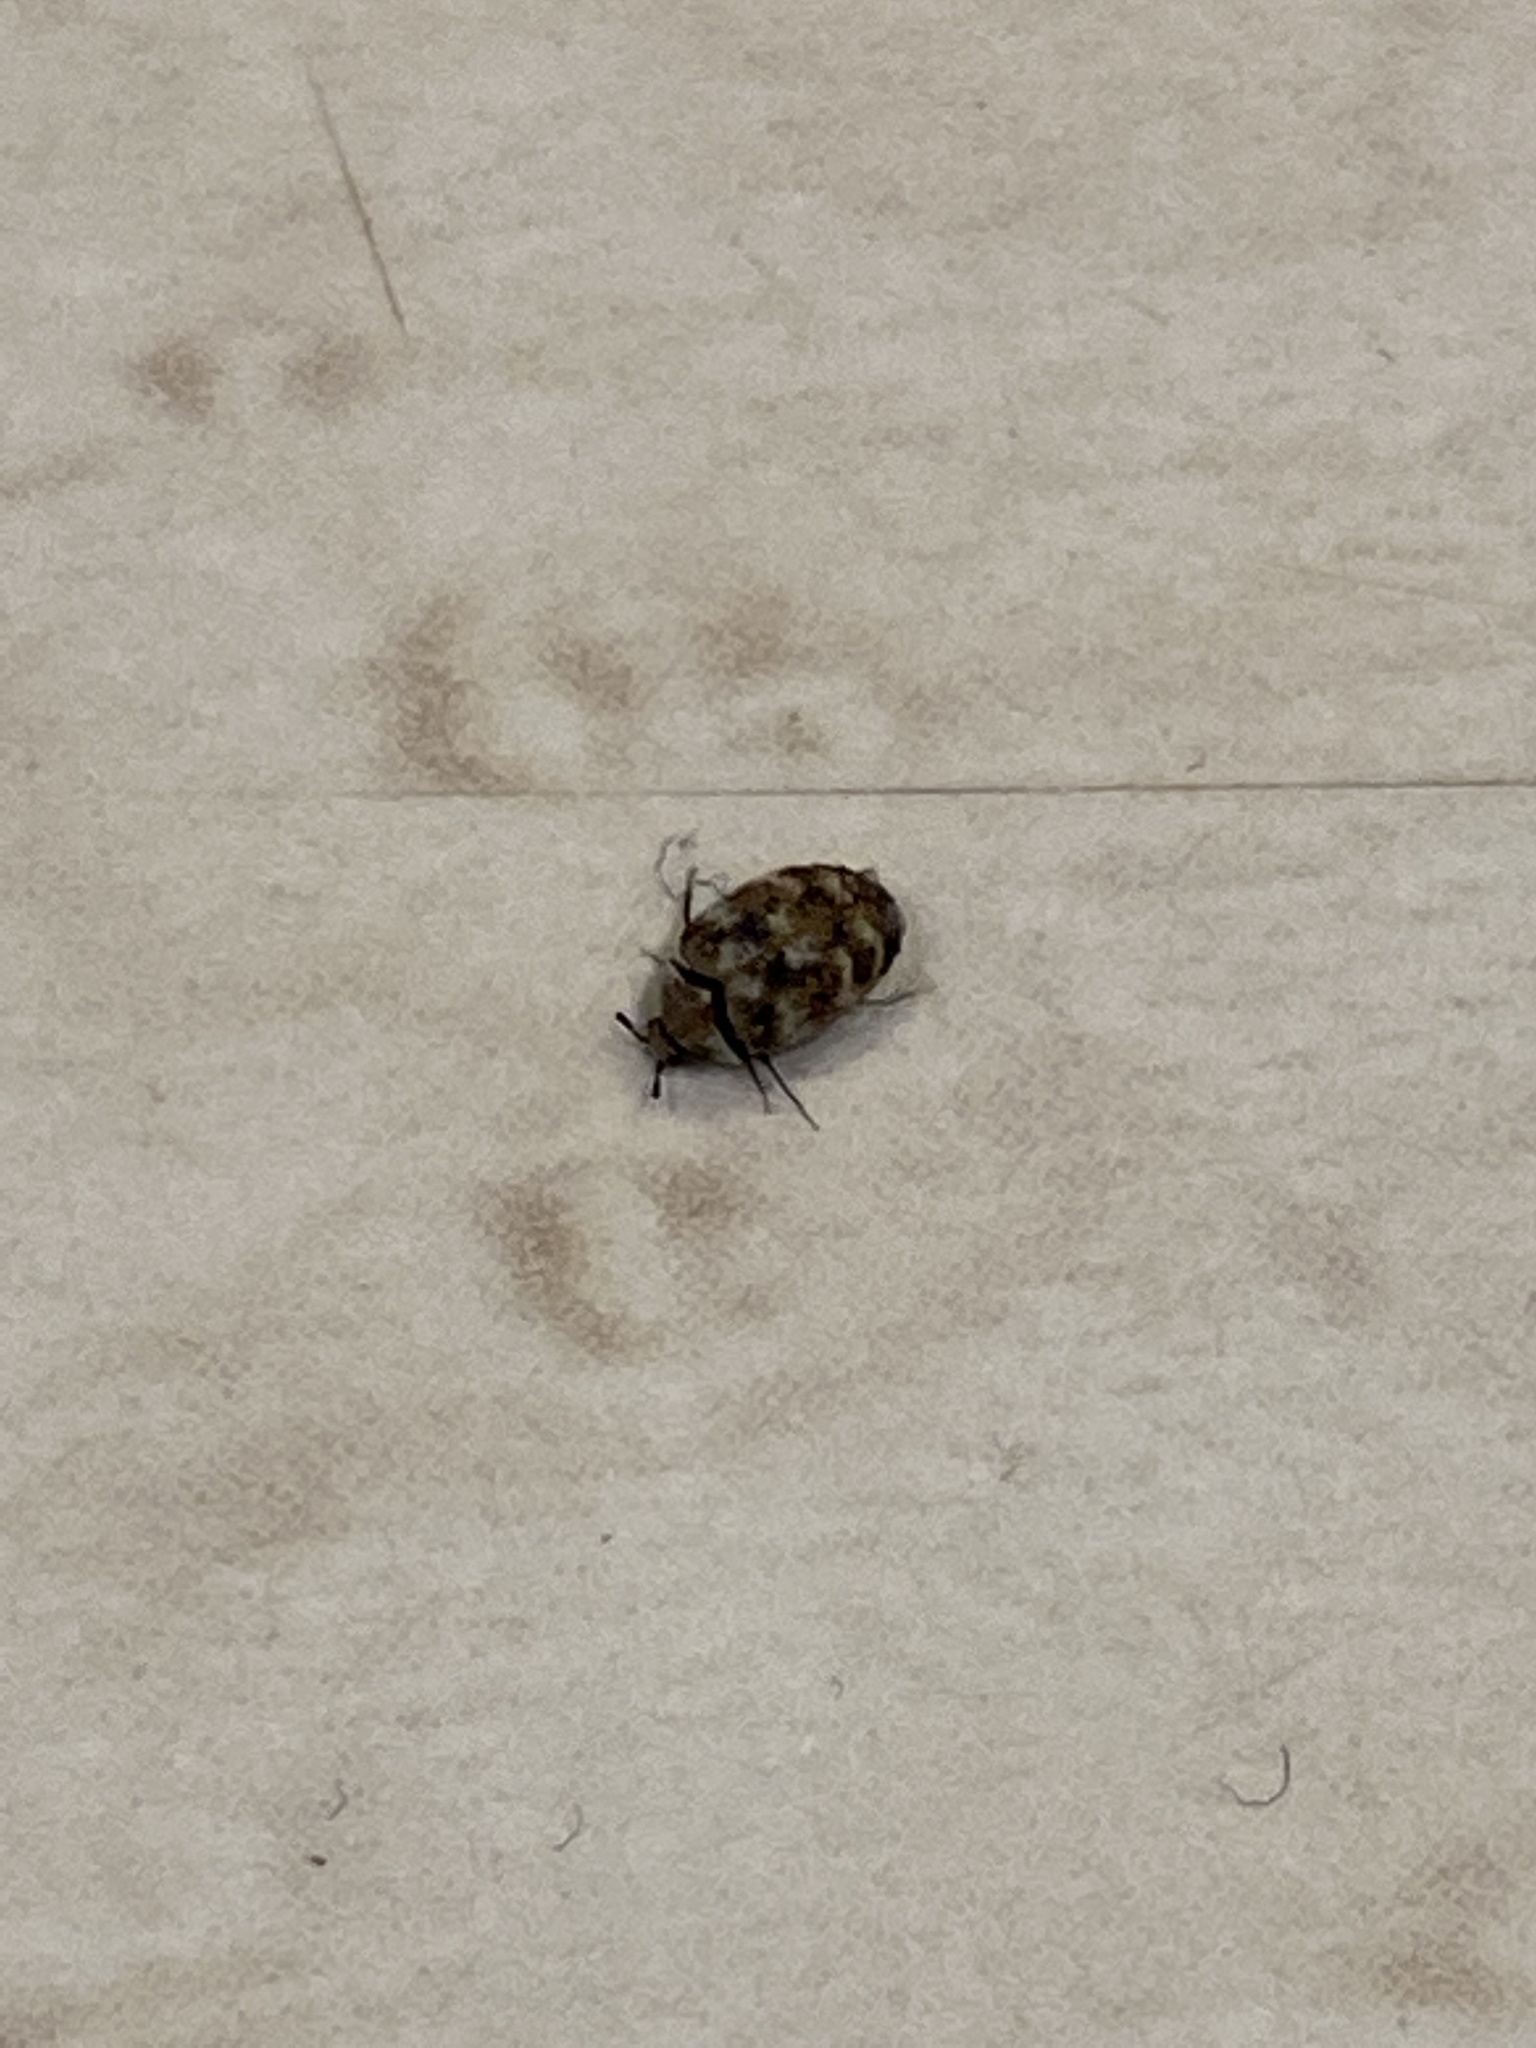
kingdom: Animalia
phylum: Arthropoda
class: Insecta
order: Coleoptera
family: Dermestidae
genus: Anthrenus
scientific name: Anthrenus verbasci
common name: Varied carpet beetle
